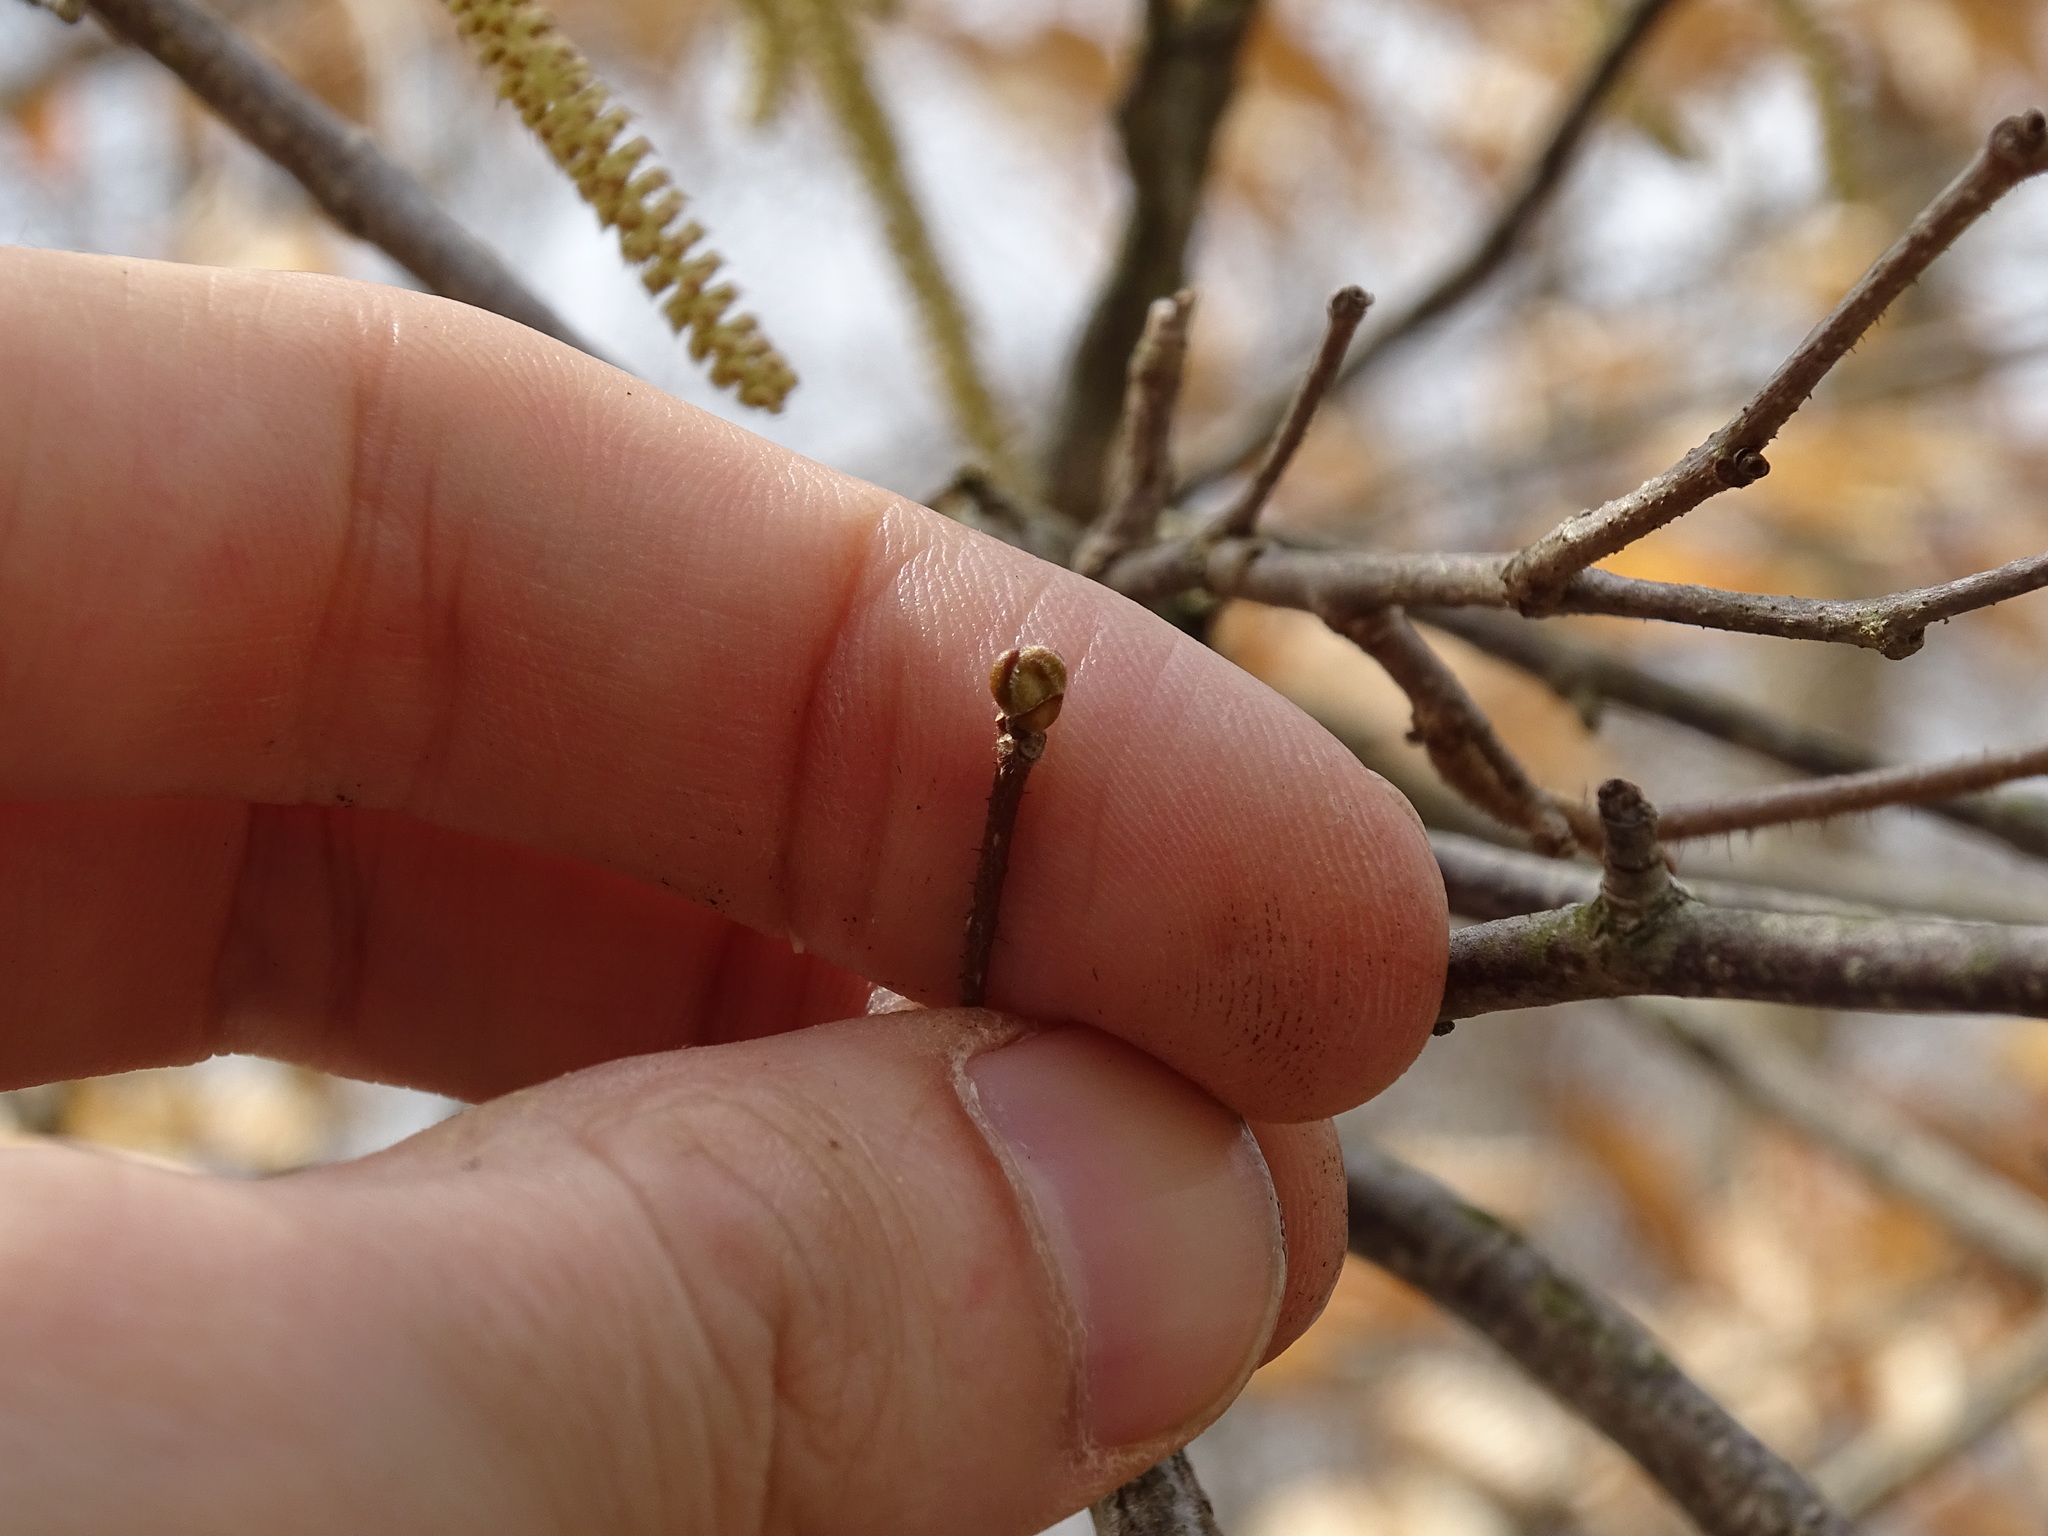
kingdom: Plantae
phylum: Tracheophyta
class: Magnoliopsida
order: Fagales
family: Betulaceae
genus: Corylus
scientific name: Corylus americana
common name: American hazel
